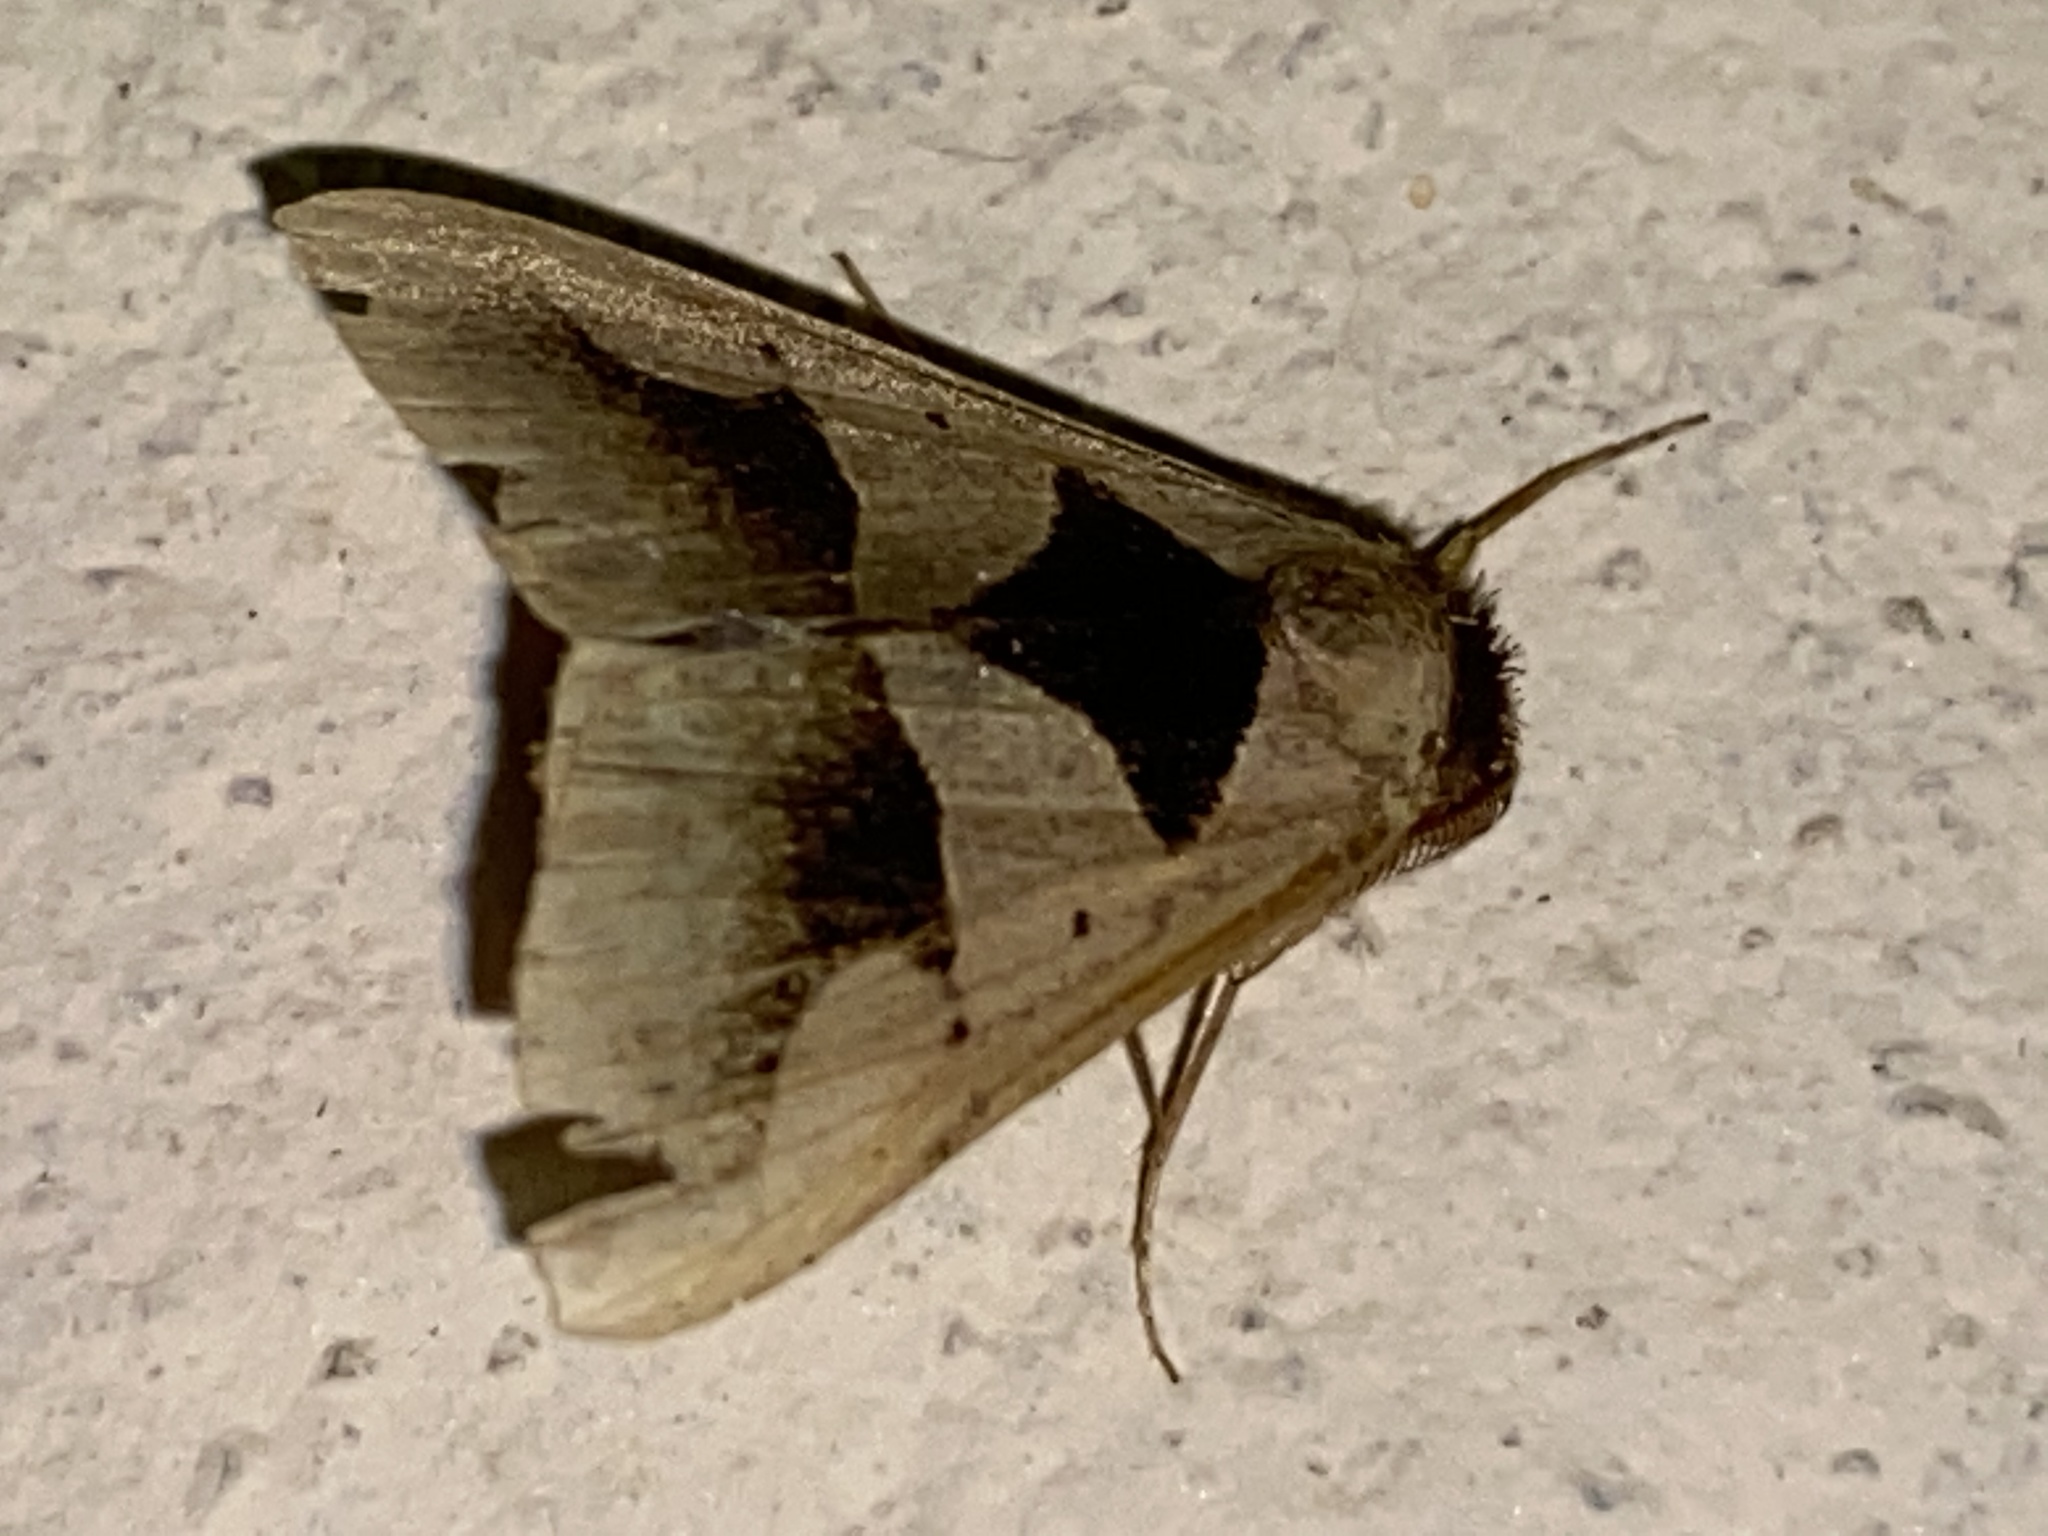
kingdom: Animalia
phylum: Arthropoda
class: Insecta
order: Lepidoptera
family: Erebidae
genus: Anoba
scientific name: Anoba trigonoides
